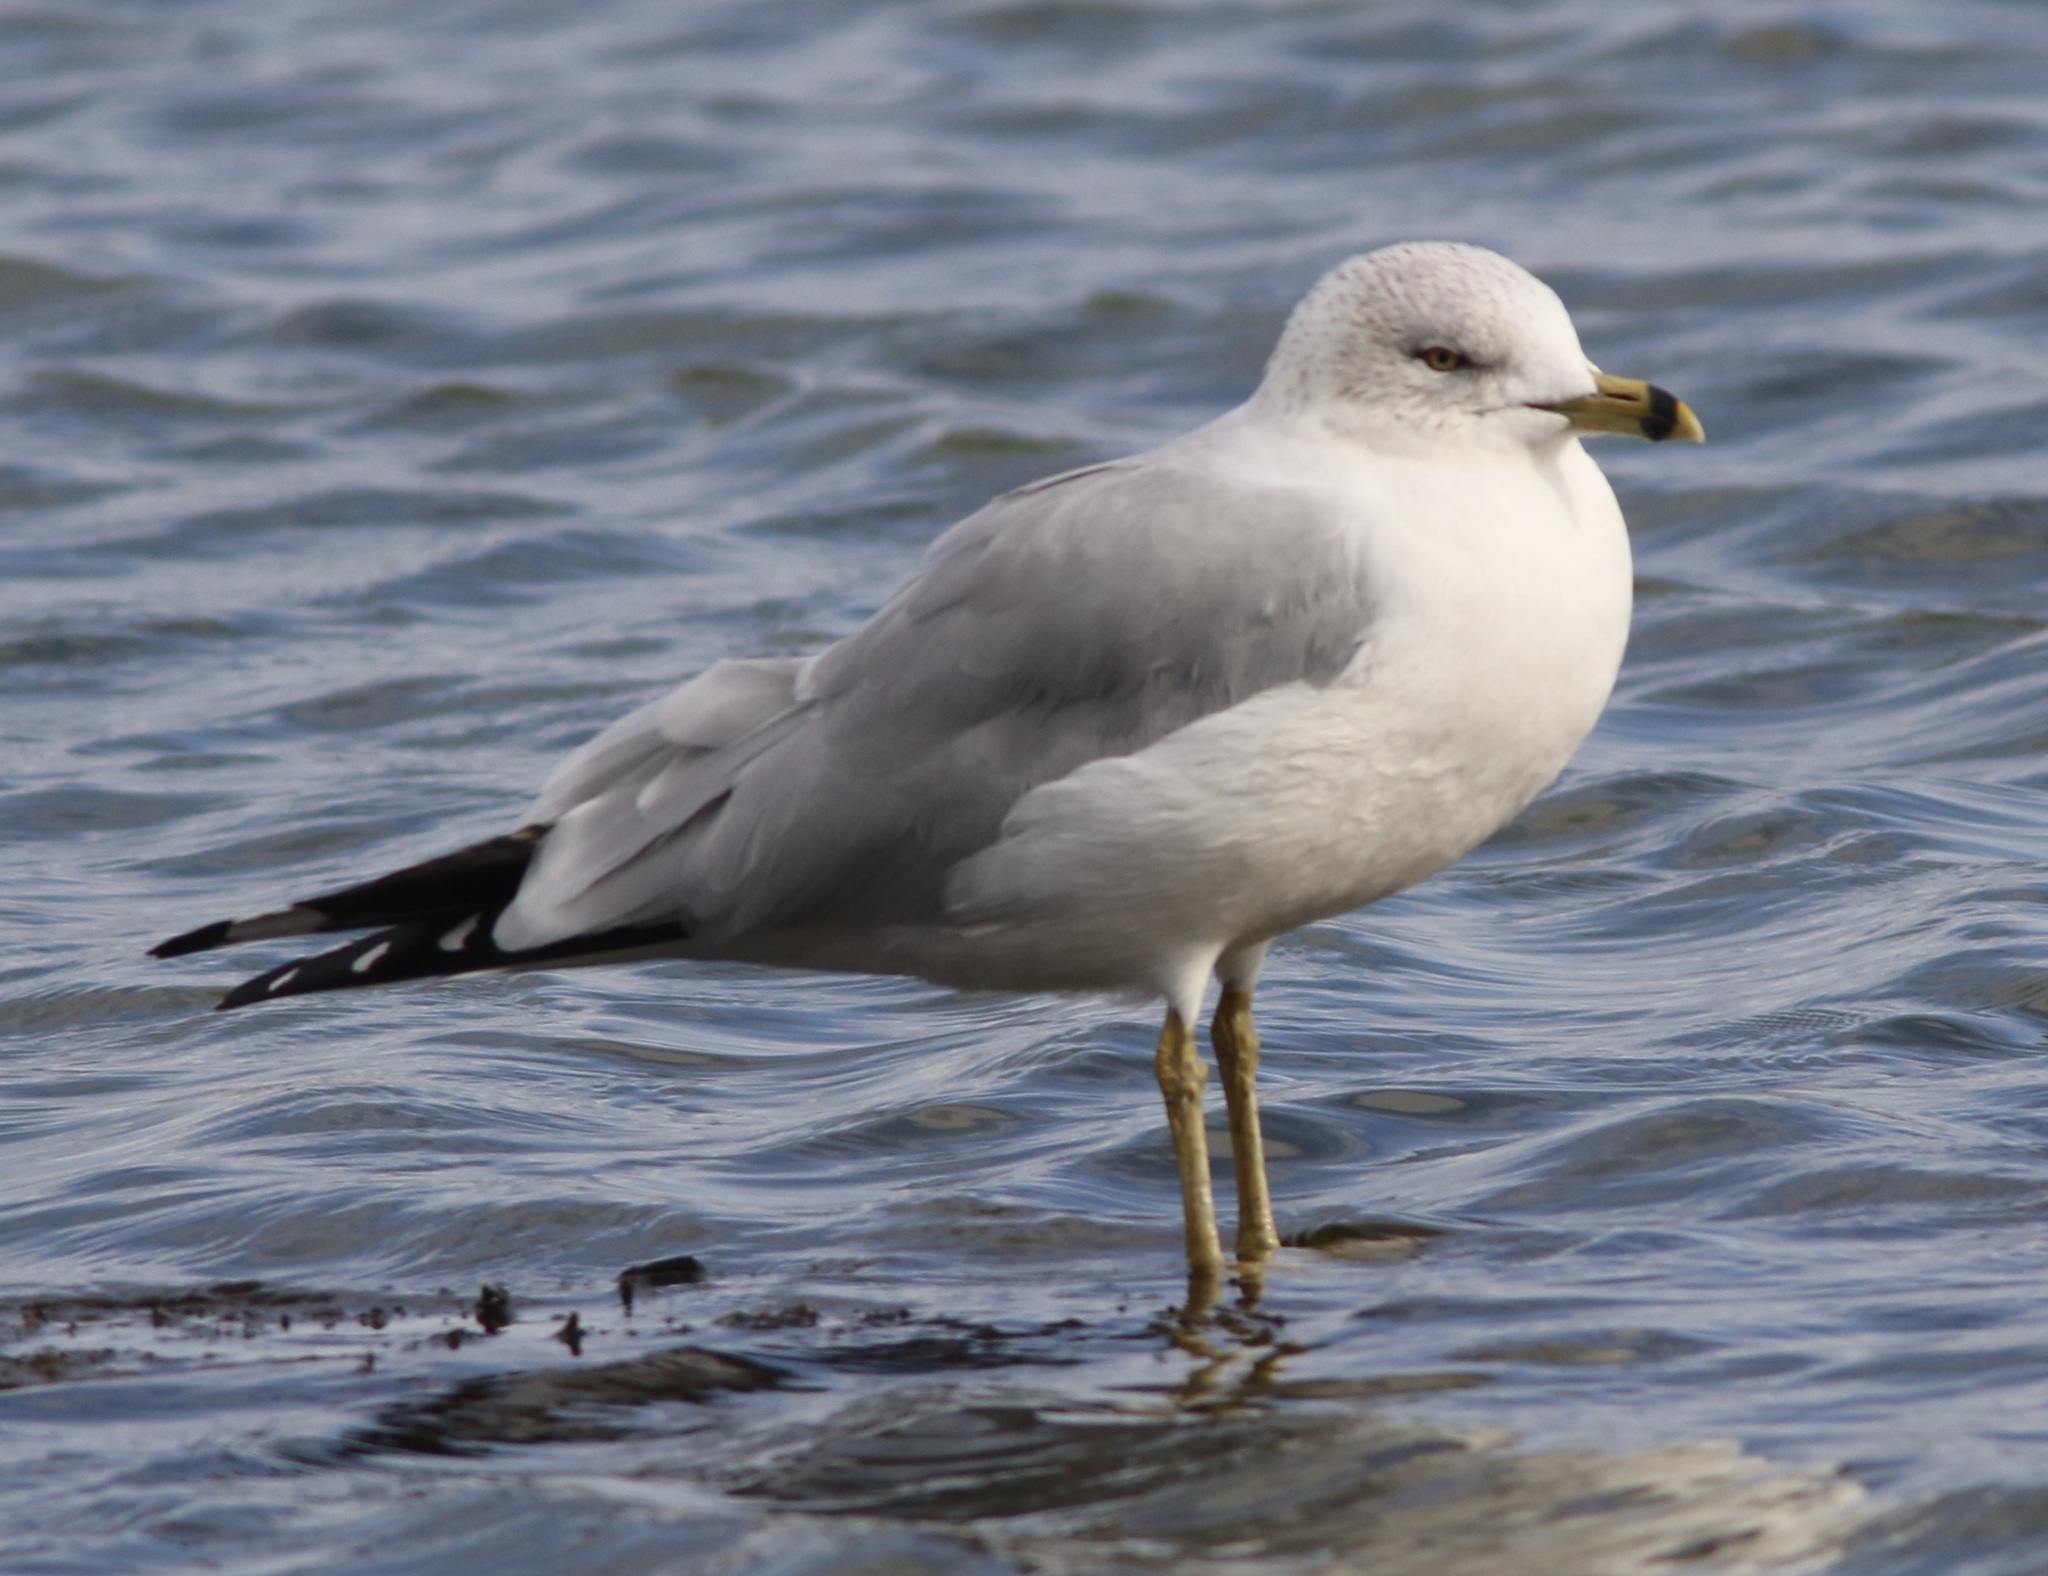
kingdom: Animalia
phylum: Chordata
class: Aves
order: Charadriiformes
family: Laridae
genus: Larus
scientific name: Larus delawarensis
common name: Ring-billed gull
